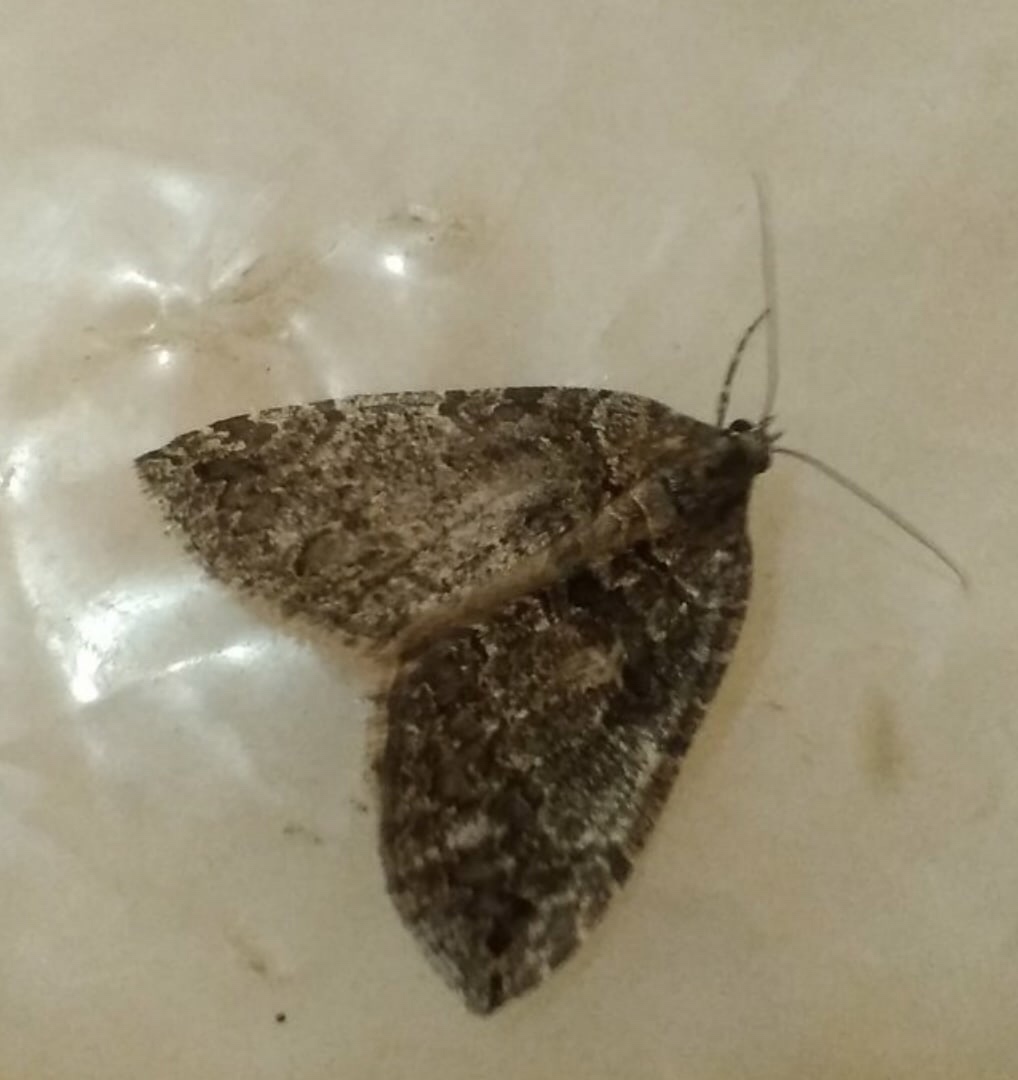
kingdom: Animalia
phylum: Arthropoda
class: Insecta
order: Lepidoptera
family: Geometridae
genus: Hydriomena
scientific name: Hydriomena furcata
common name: July highflyer
